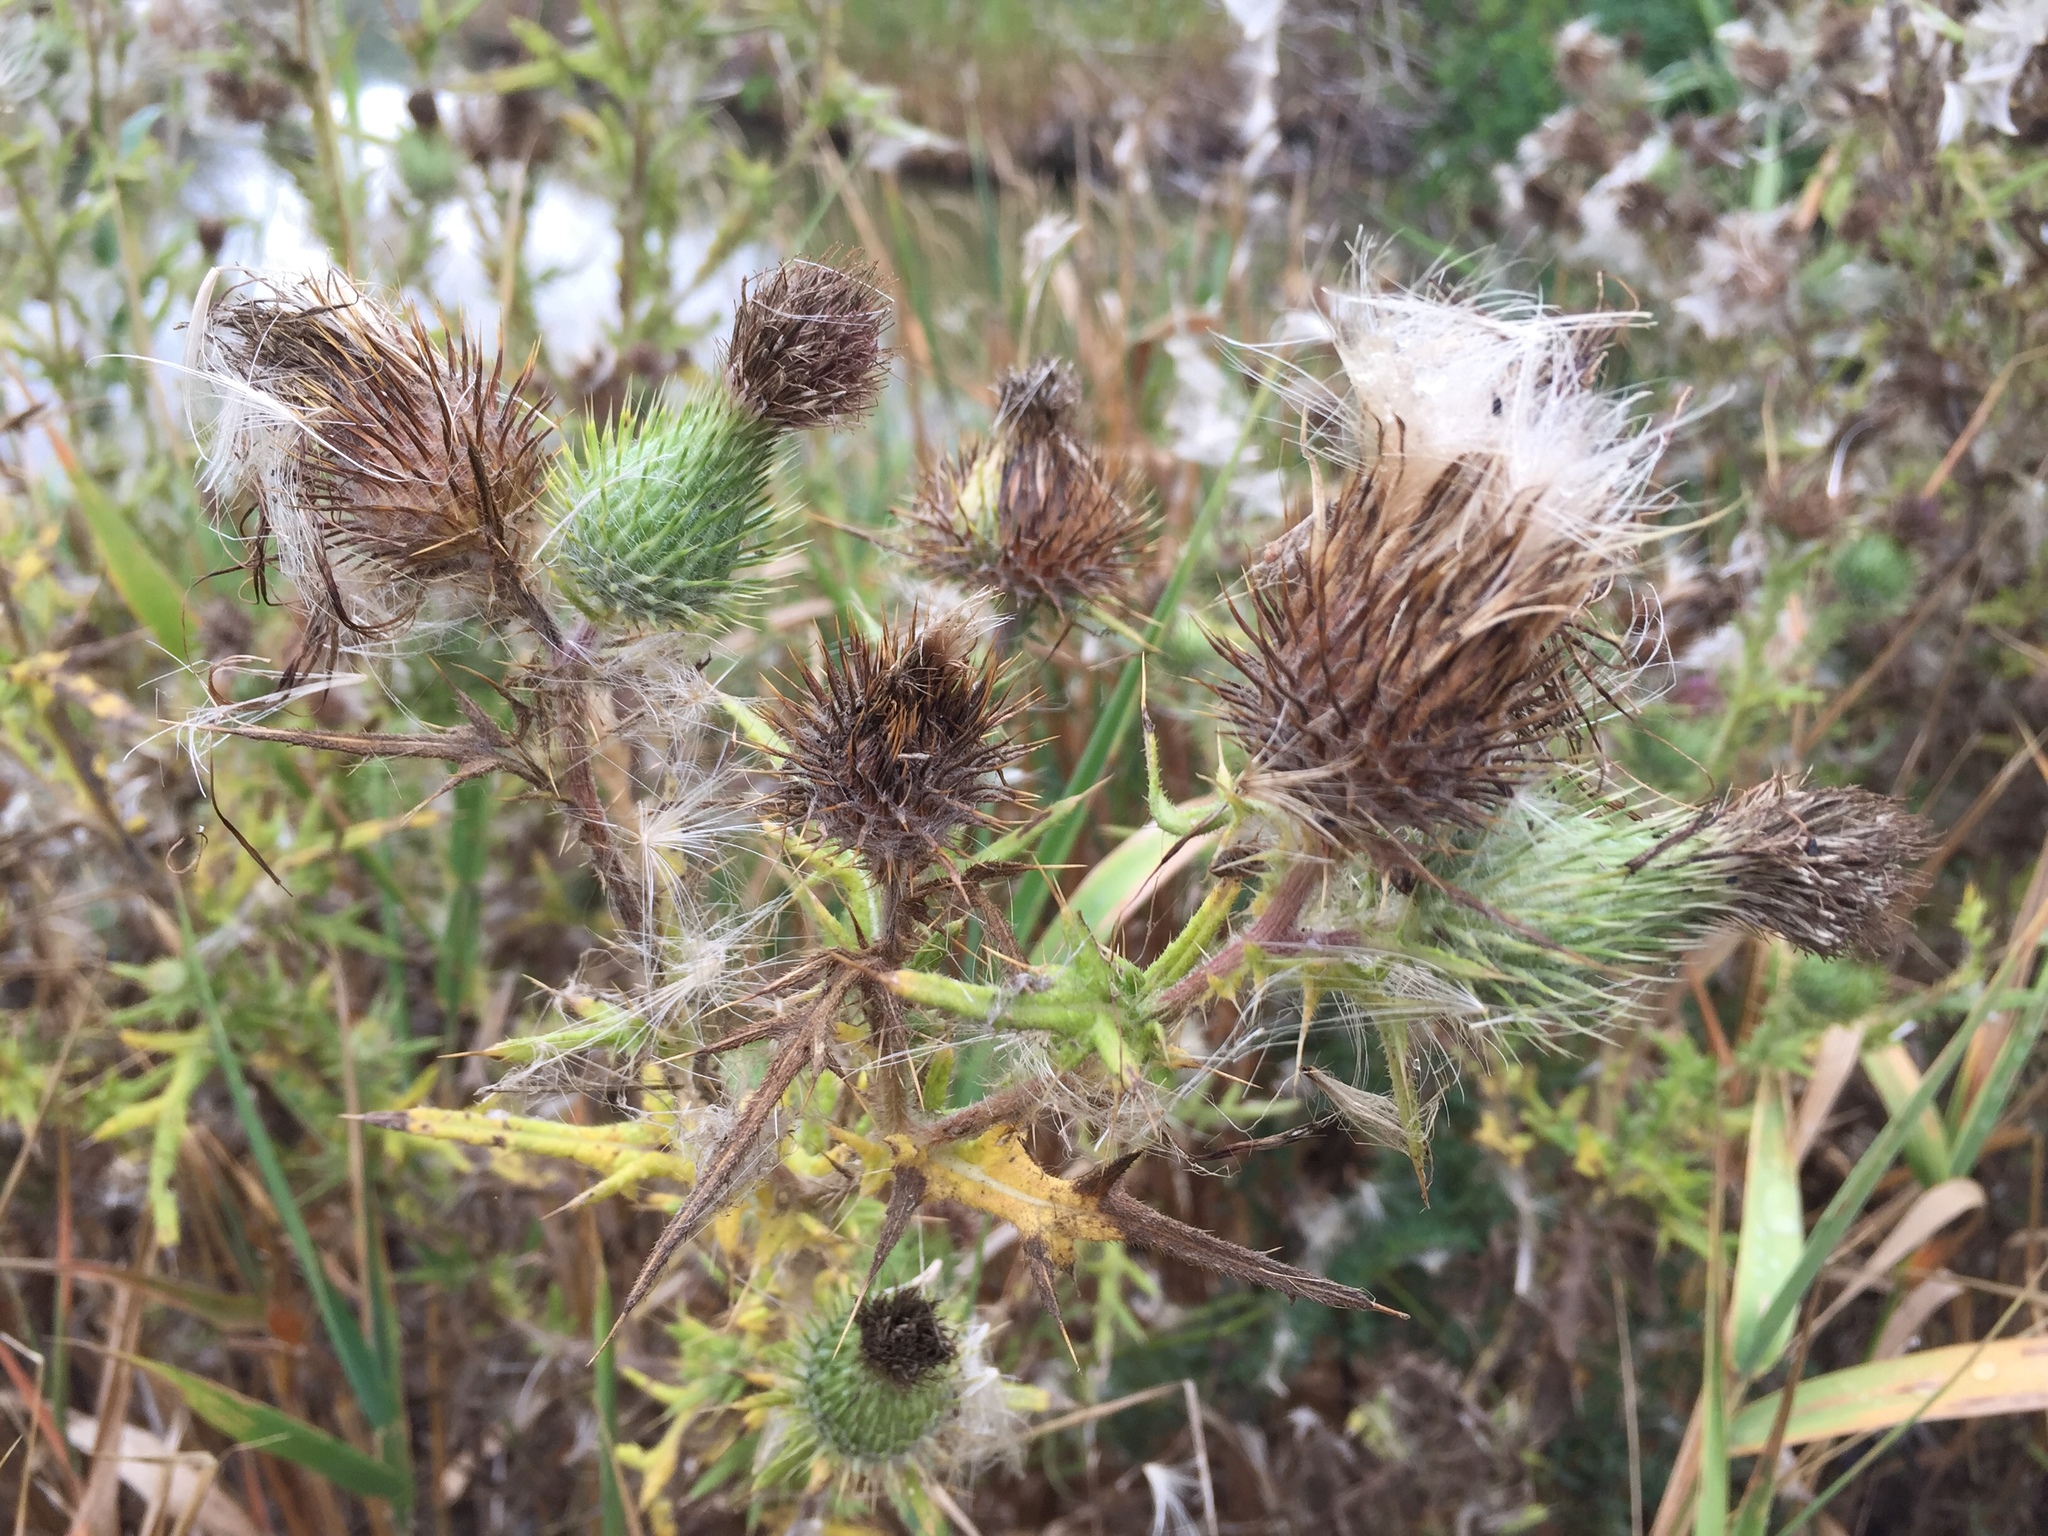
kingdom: Plantae
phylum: Tracheophyta
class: Magnoliopsida
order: Asterales
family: Asteraceae
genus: Cirsium
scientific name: Cirsium vulgare
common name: Bull thistle
